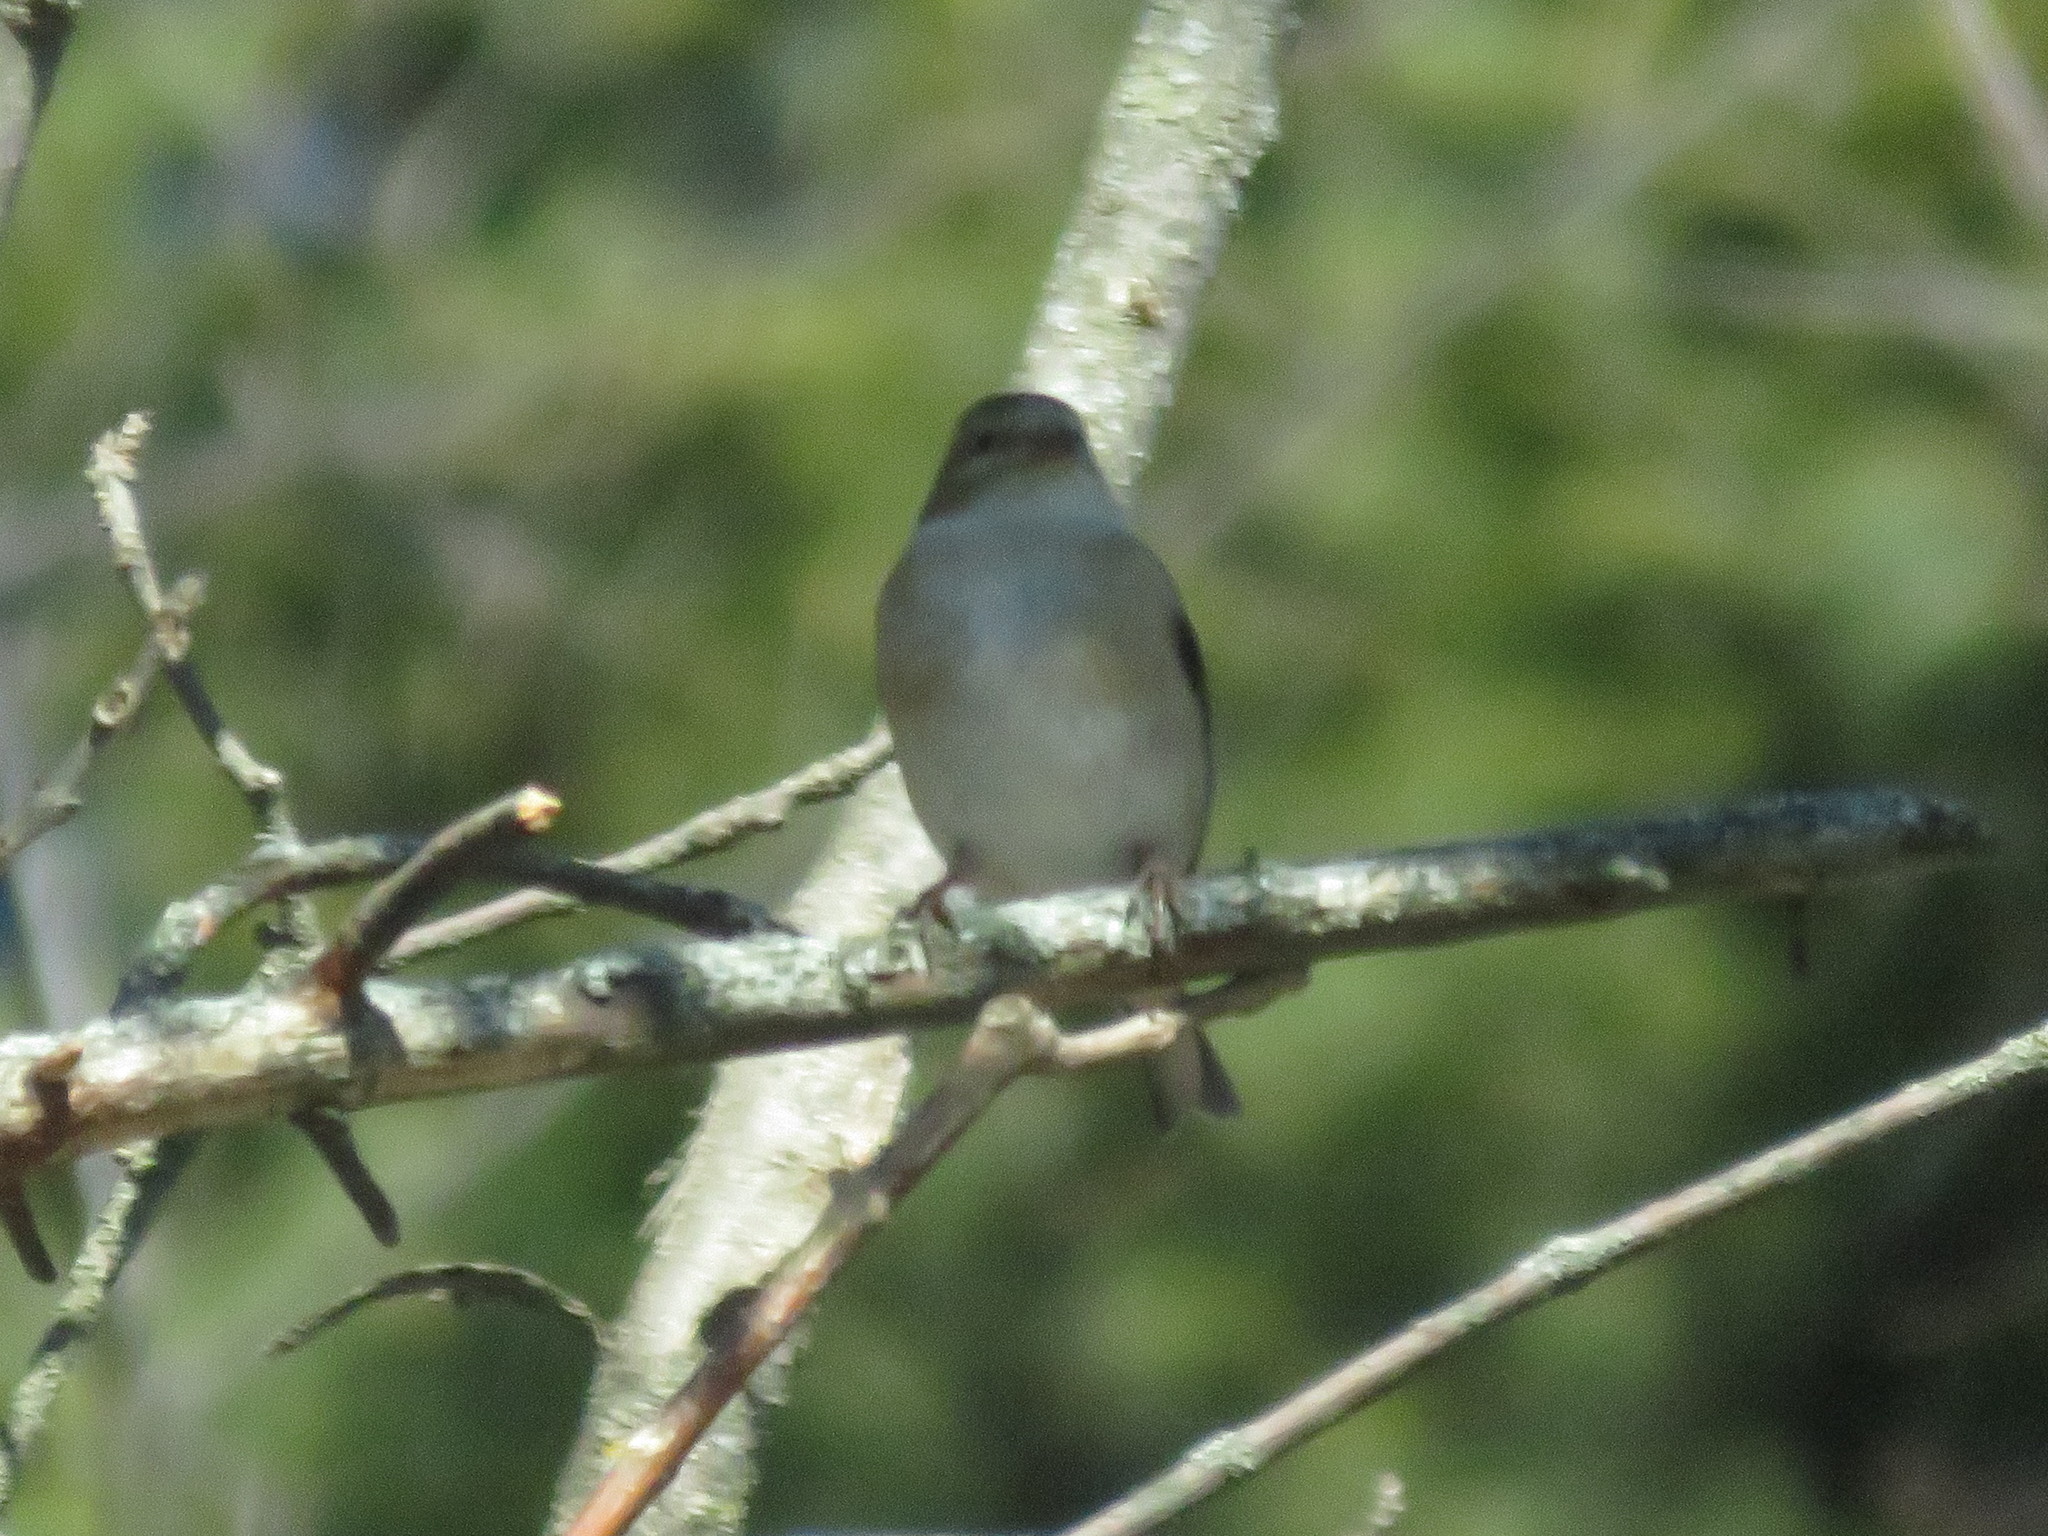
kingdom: Animalia
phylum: Chordata
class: Aves
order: Passeriformes
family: Fringillidae
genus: Spinus
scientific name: Spinus tristis
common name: American goldfinch
